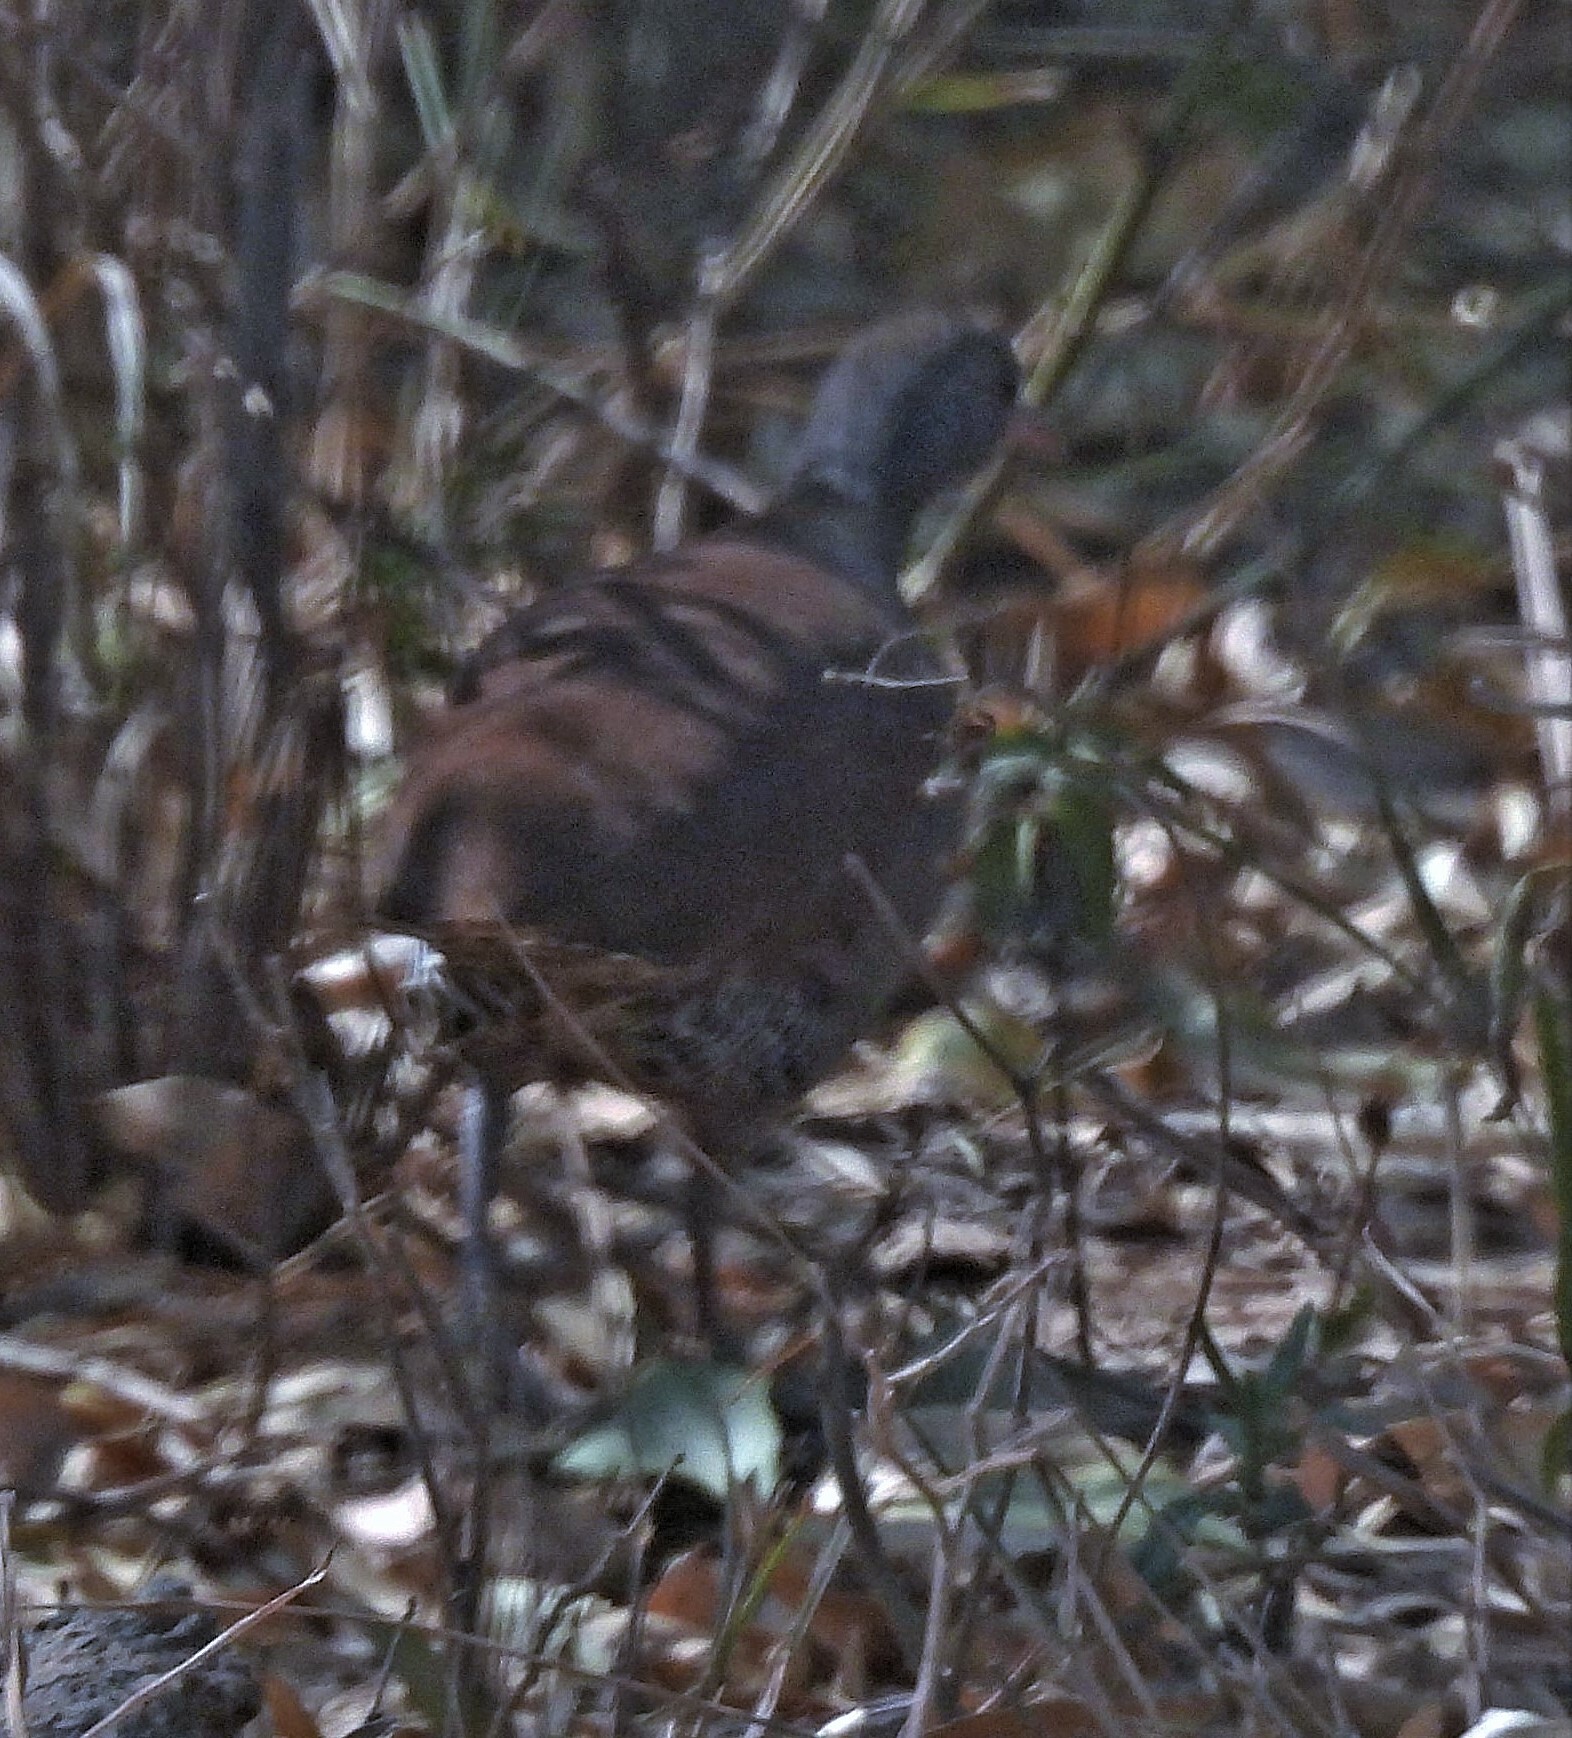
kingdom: Animalia
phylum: Chordata
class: Aves
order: Tinamiformes
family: Tinamidae
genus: Crypturellus
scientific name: Crypturellus tataupa
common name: Tataupa tinamou
